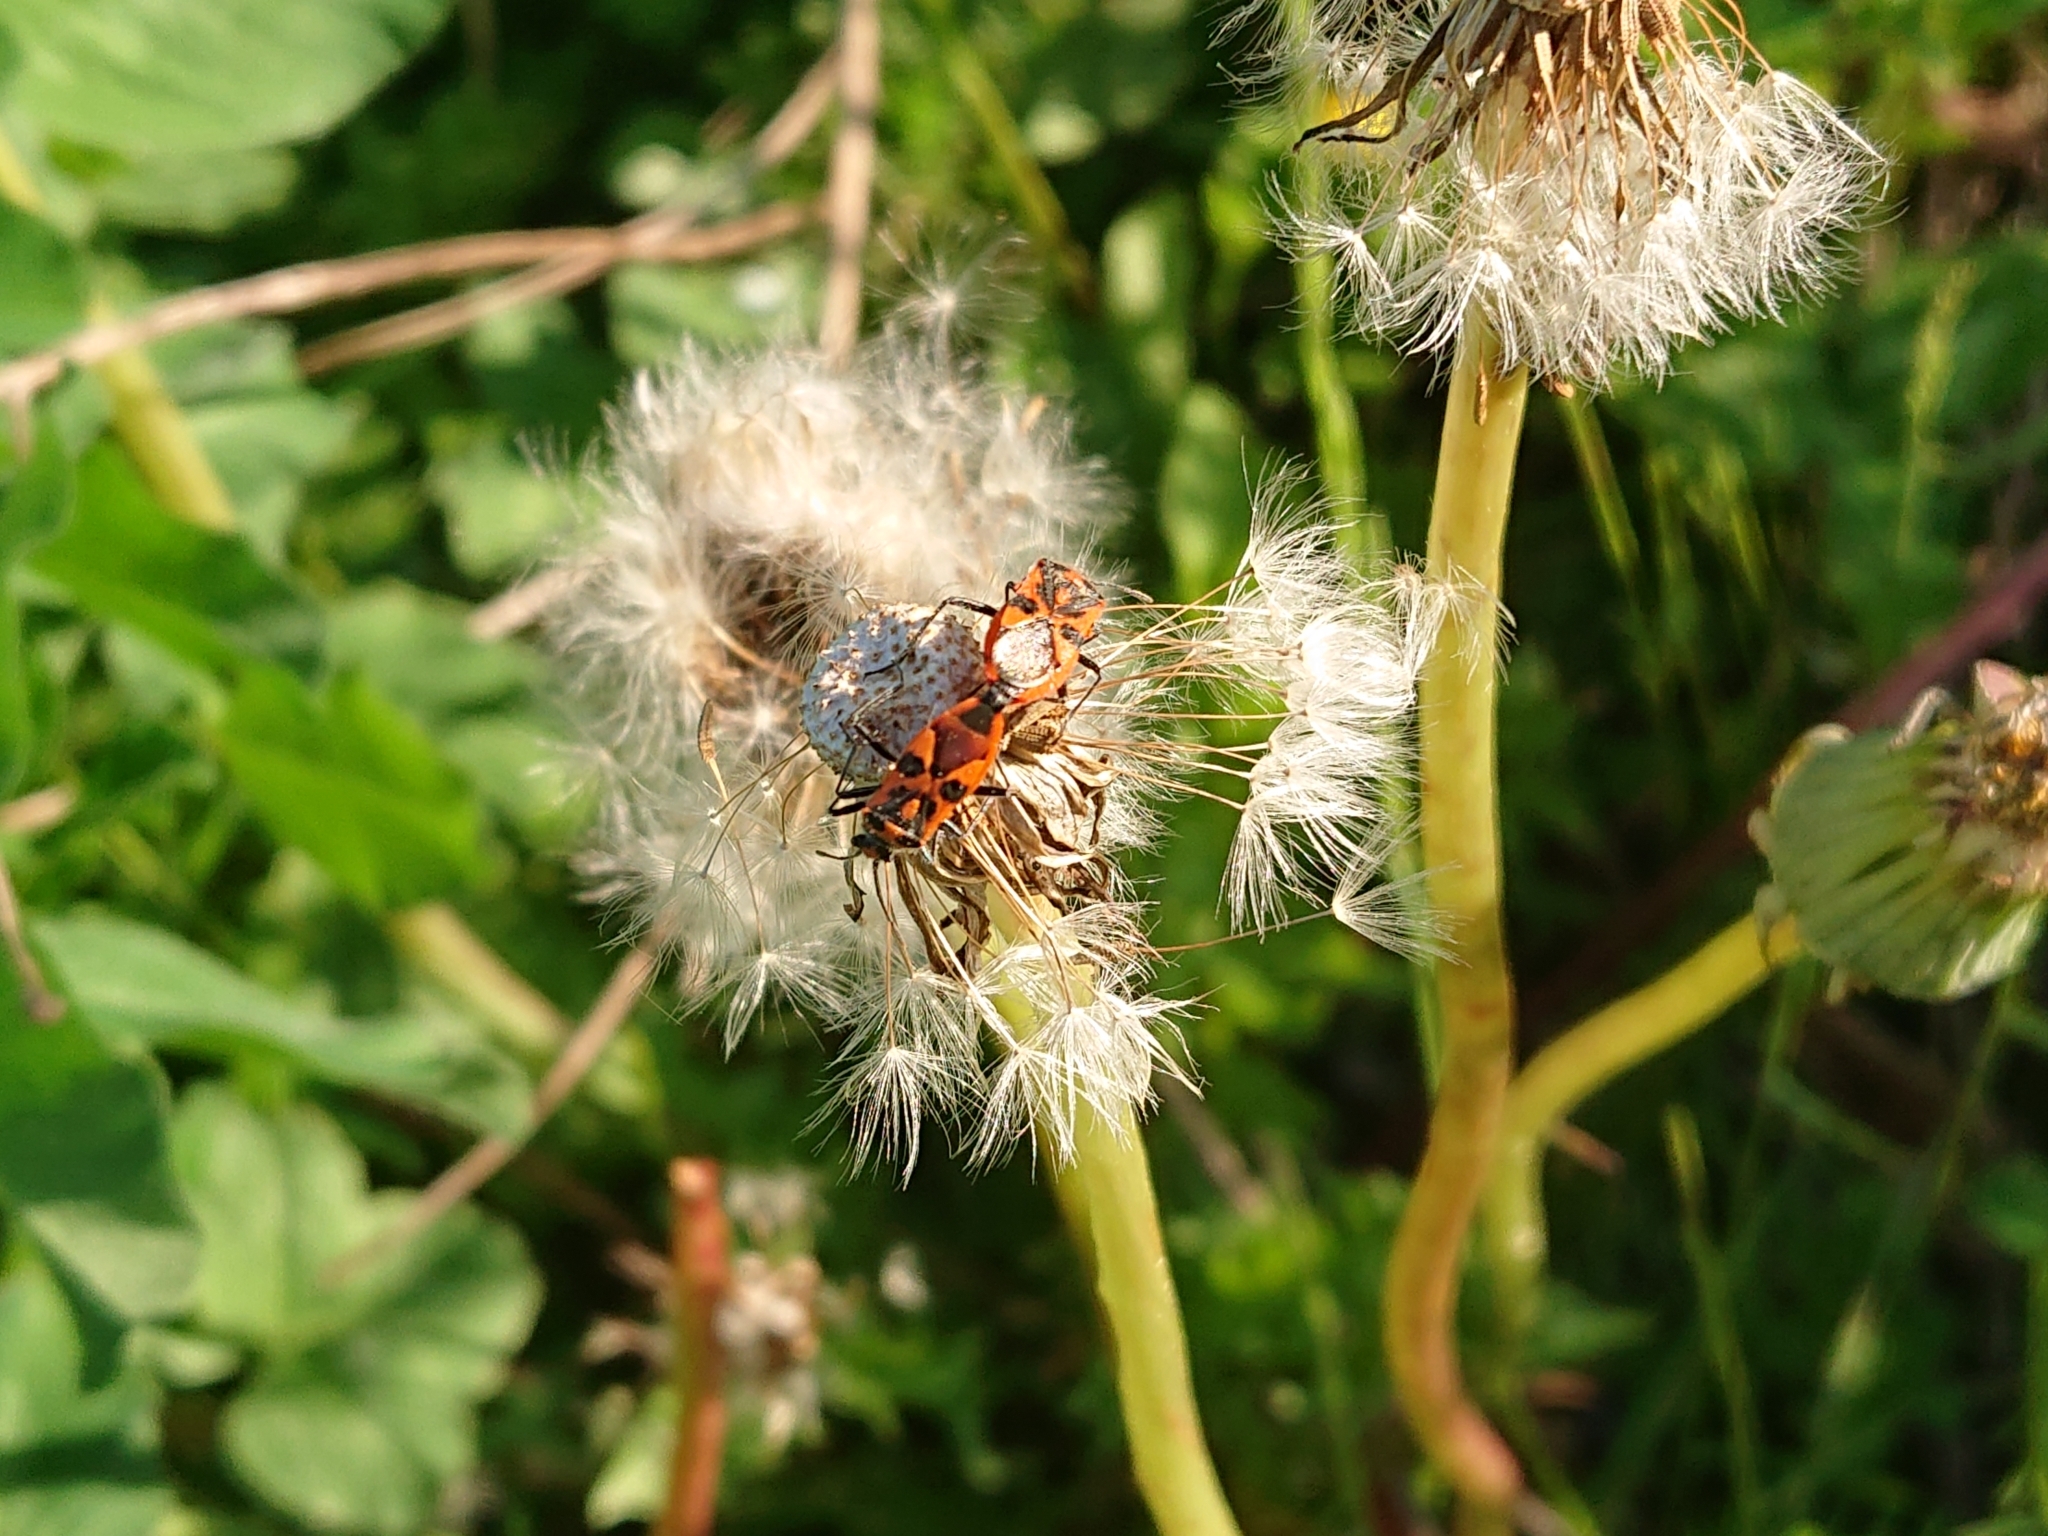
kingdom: Animalia
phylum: Arthropoda
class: Insecta
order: Hemiptera
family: Rhopalidae
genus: Corizus
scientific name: Corizus hyoscyami
